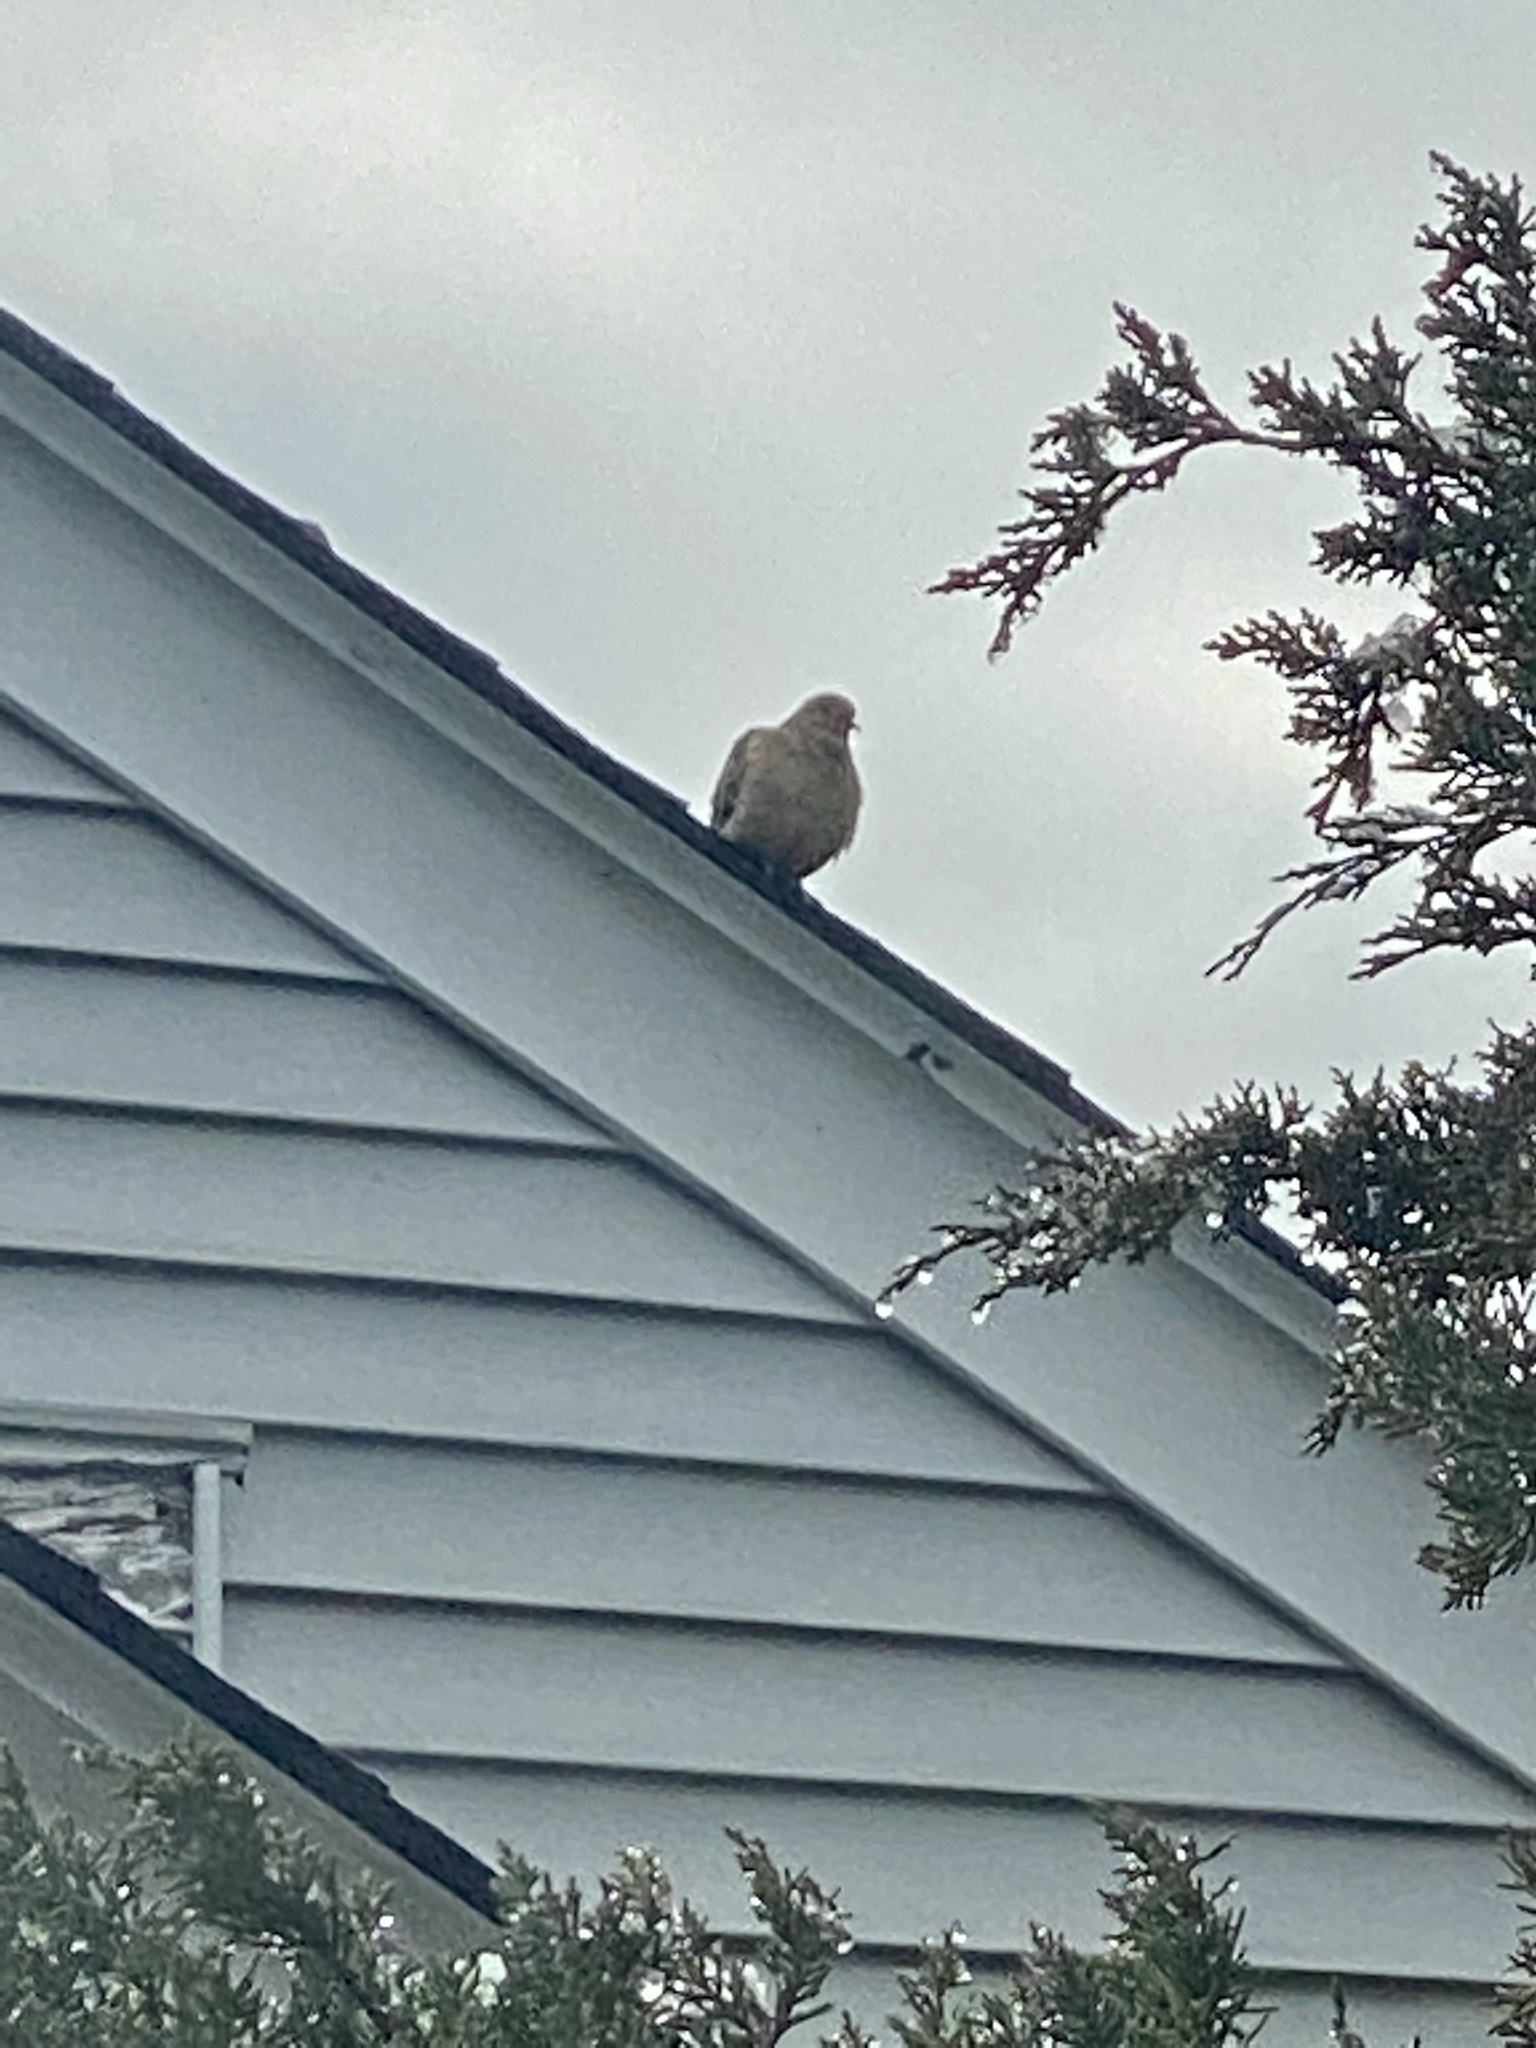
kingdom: Animalia
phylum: Chordata
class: Aves
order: Columbiformes
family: Columbidae
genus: Zenaida
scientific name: Zenaida macroura
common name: Mourning dove
